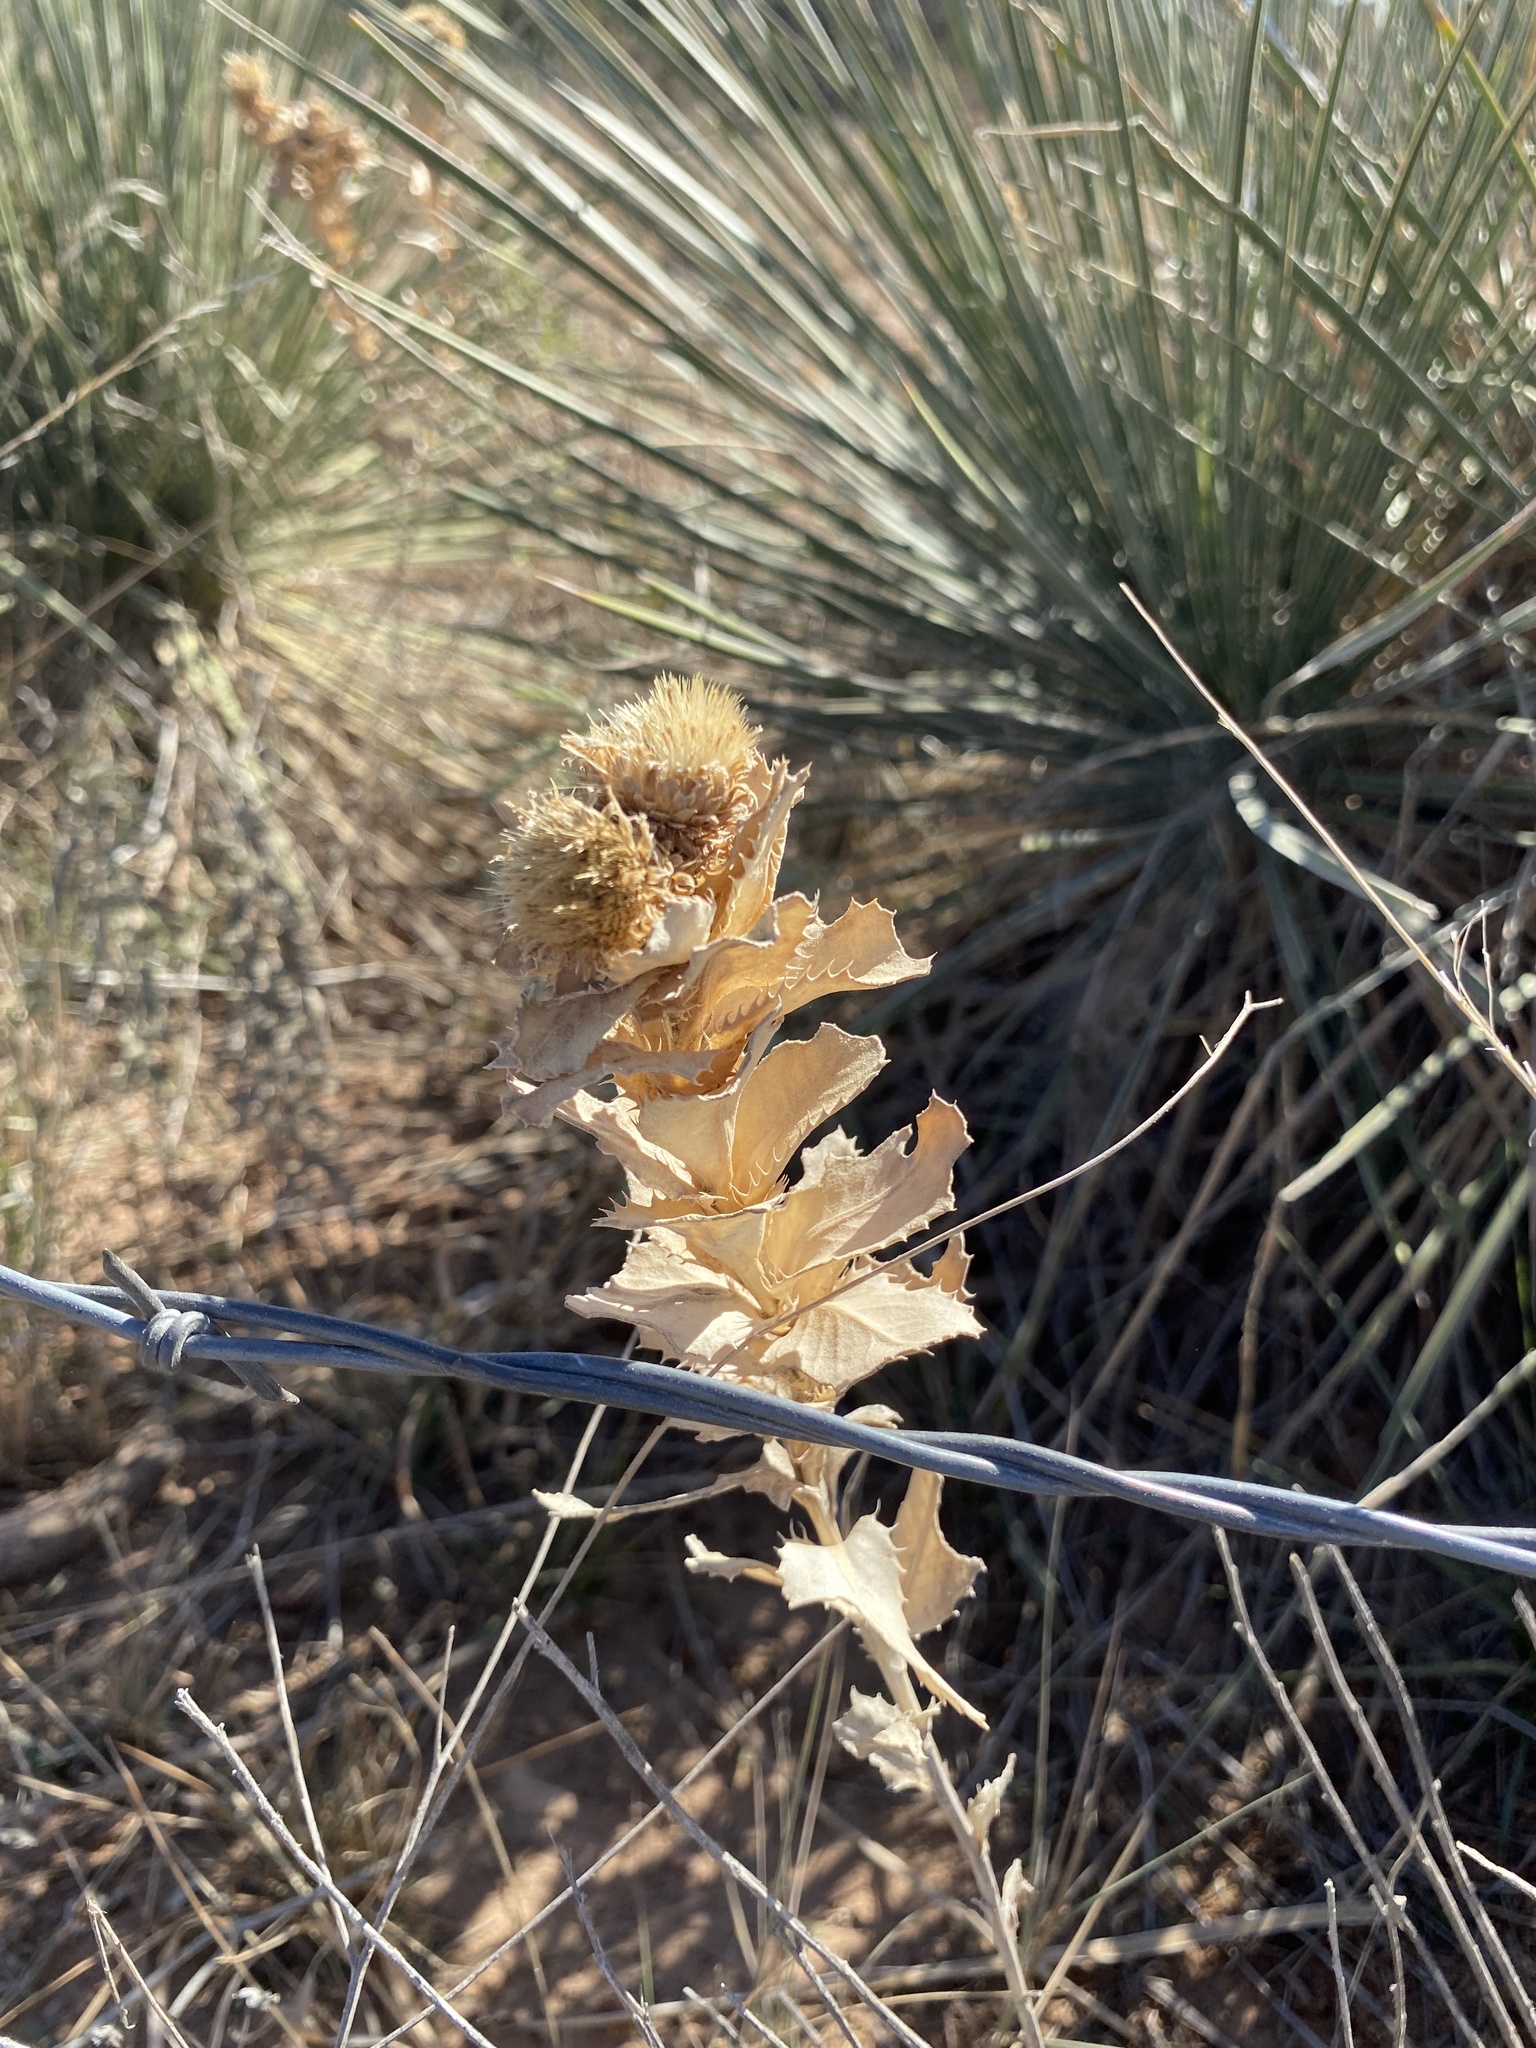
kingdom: Plantae
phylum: Tracheophyta
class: Magnoliopsida
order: Asterales
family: Asteraceae
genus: Grindelia
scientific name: Grindelia ciliata
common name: Goldenweed
